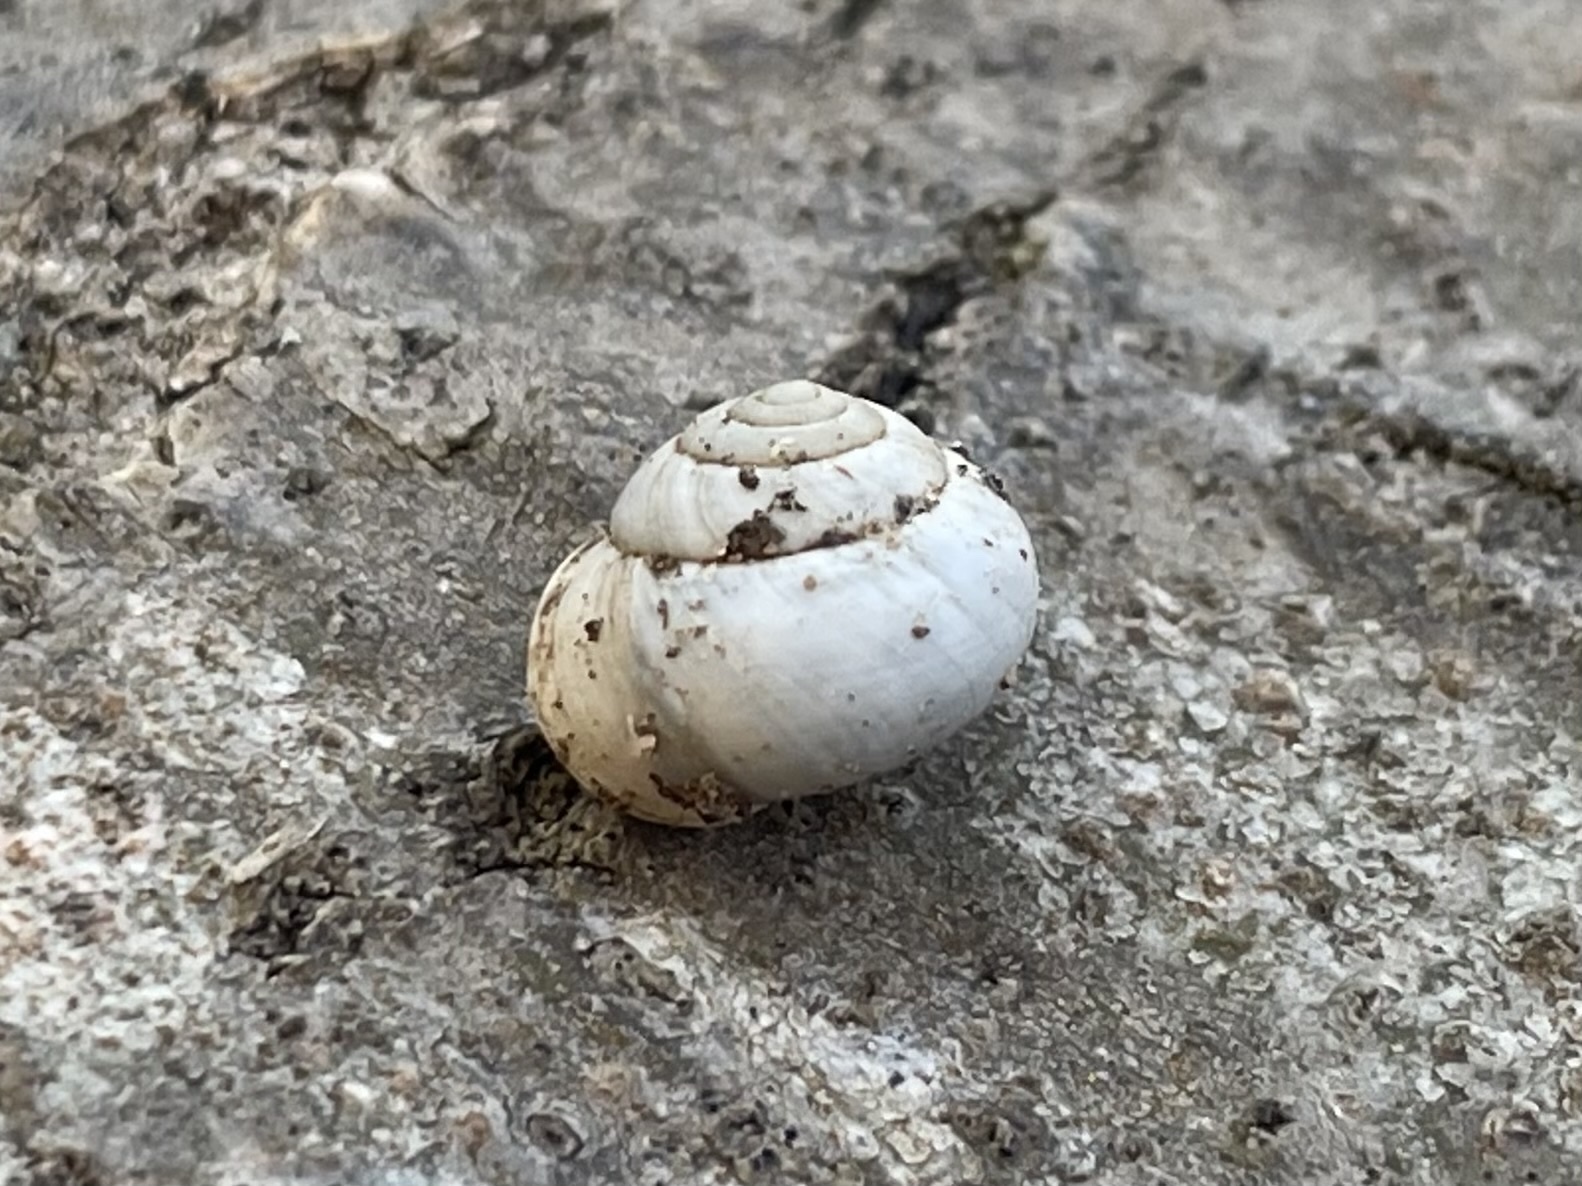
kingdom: Animalia
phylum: Mollusca
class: Gastropoda
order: Cycloneritida
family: Helicinidae
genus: Helicina
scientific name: Helicina orbiculata
